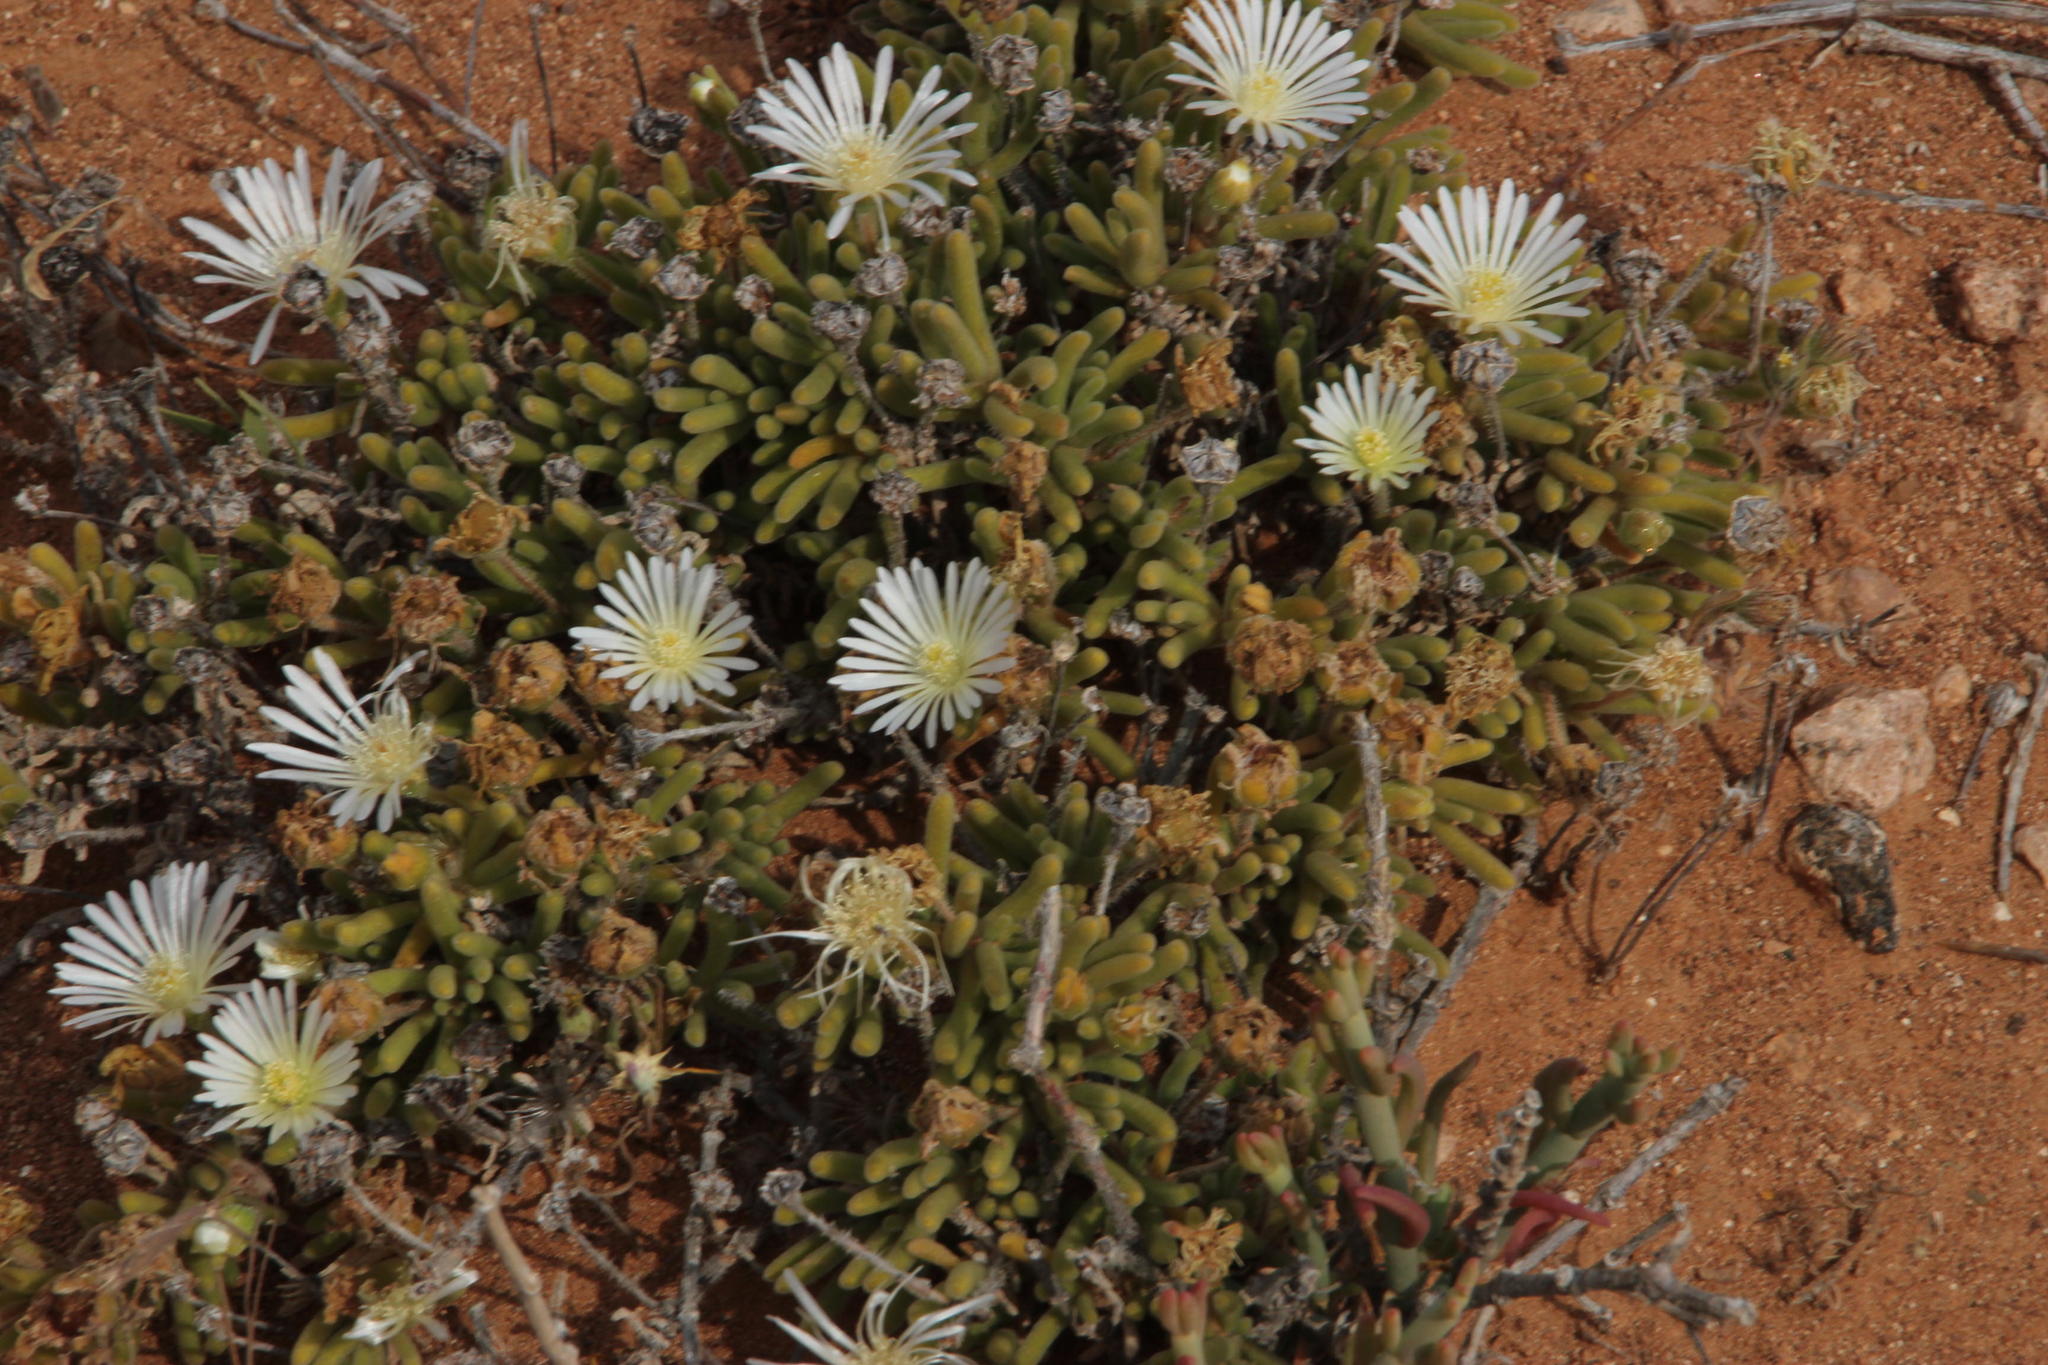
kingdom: Plantae
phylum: Tracheophyta
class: Magnoliopsida
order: Caryophyllales
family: Aizoaceae
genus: Drosanthemum
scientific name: Drosanthemum eburneum
